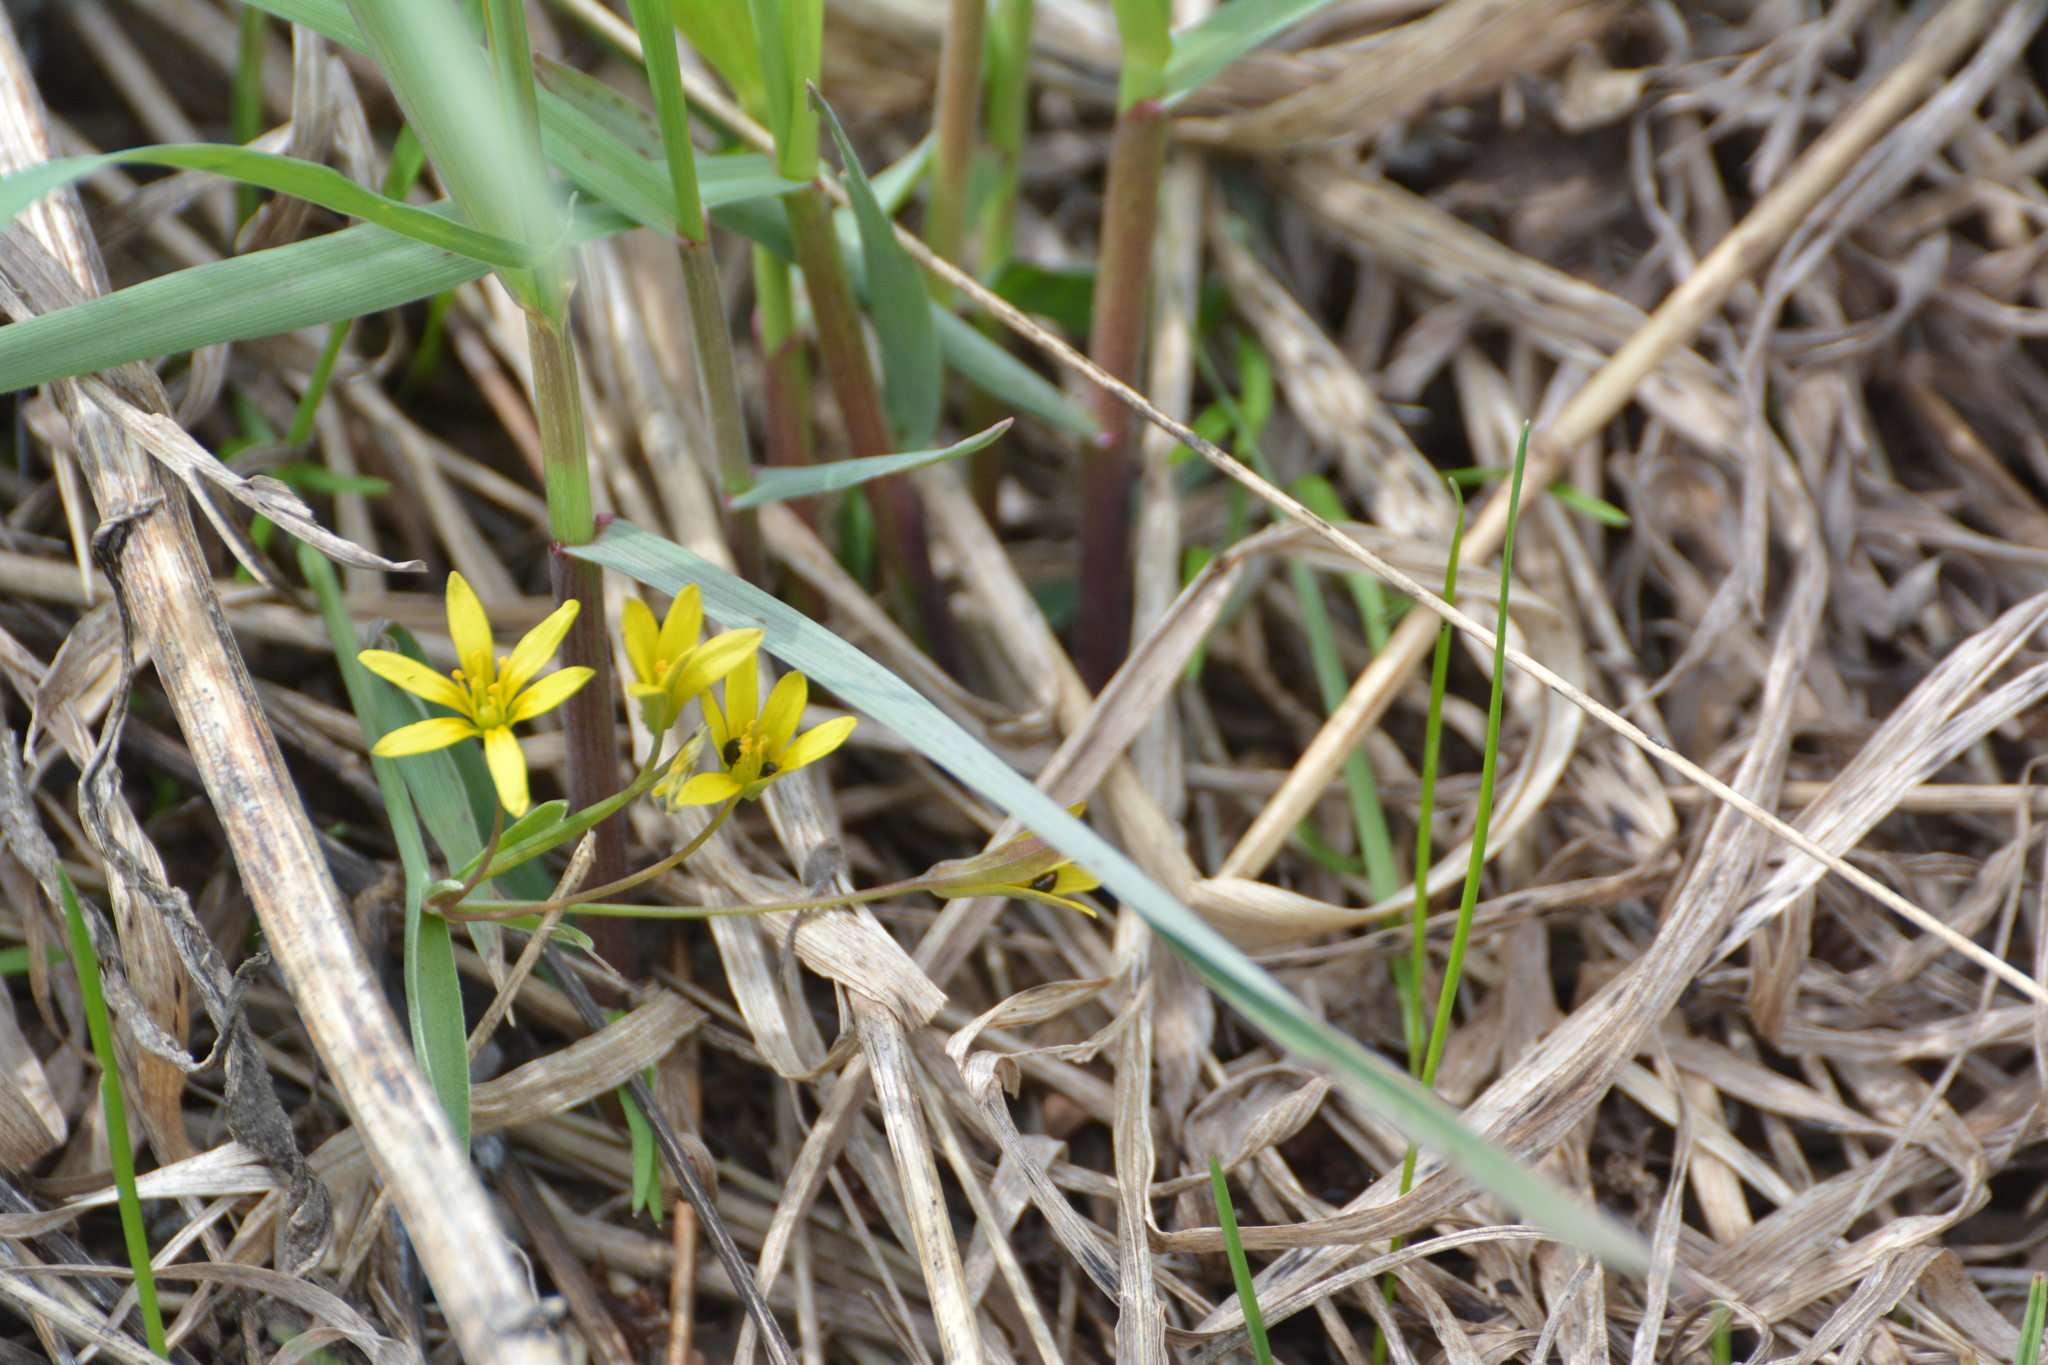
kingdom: Plantae
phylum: Tracheophyta
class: Liliopsida
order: Liliales
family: Liliaceae
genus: Gagea
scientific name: Gagea fragifera
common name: Lily
